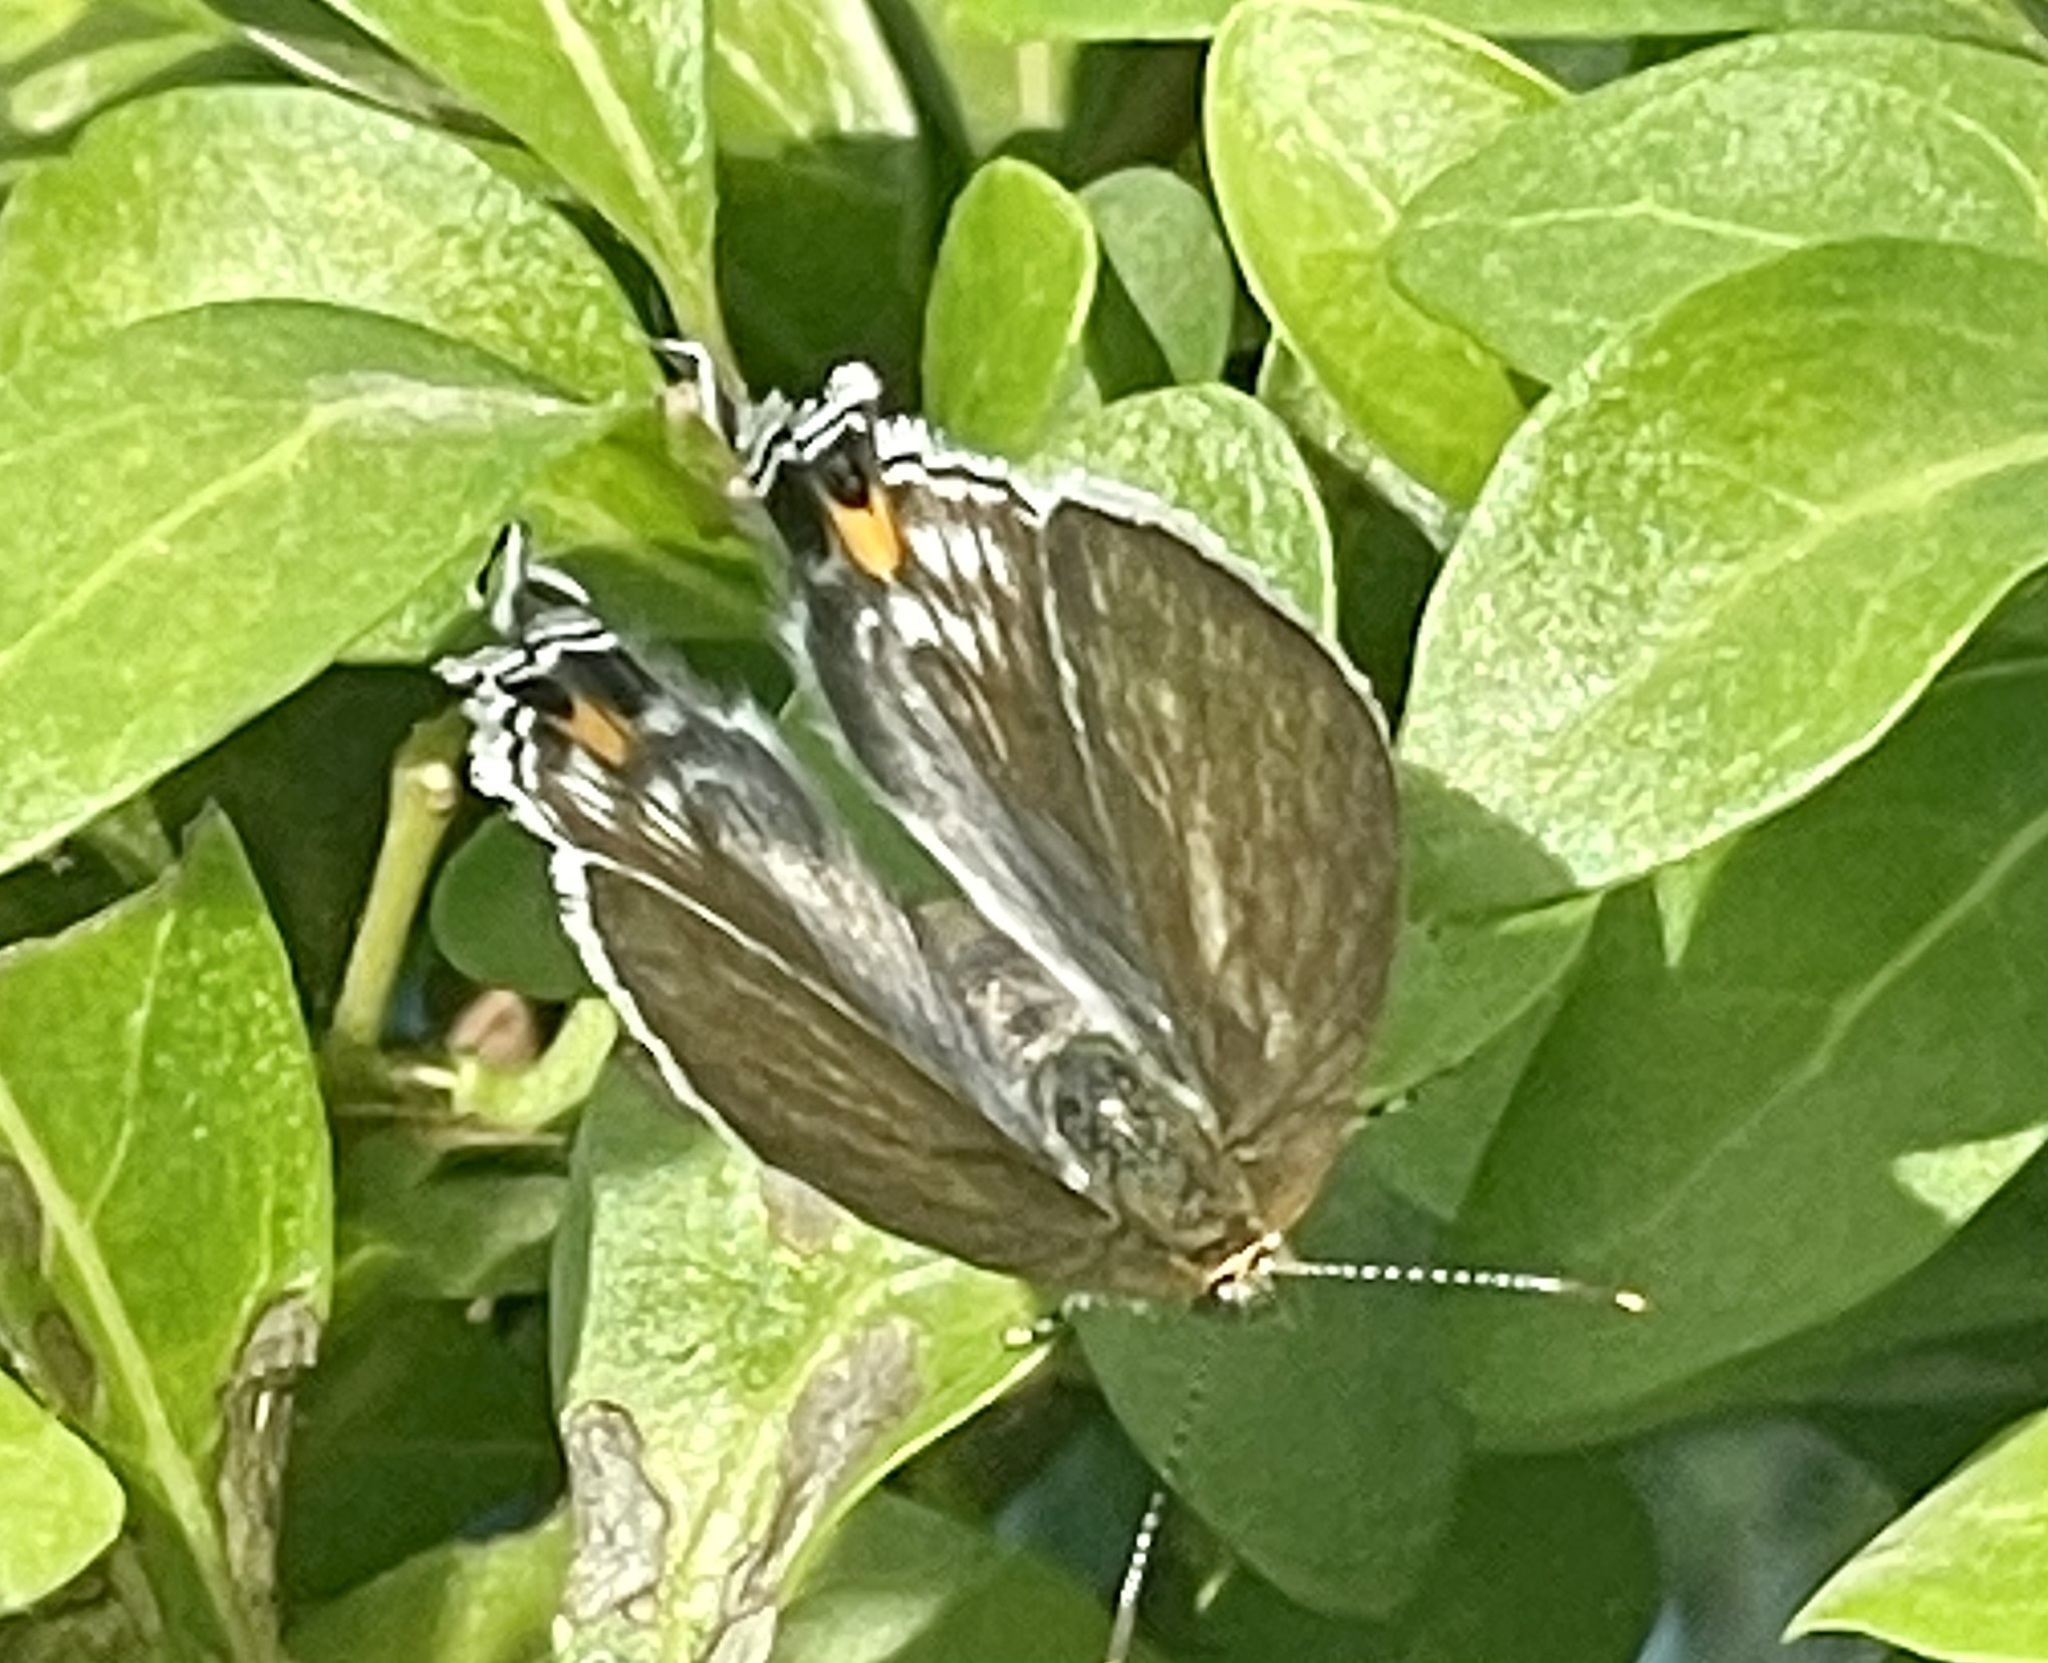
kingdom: Animalia
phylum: Arthropoda
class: Insecta
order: Lepidoptera
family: Lycaenidae
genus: Hypolycaena
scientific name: Hypolycaena philippus
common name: Common hairstreak
